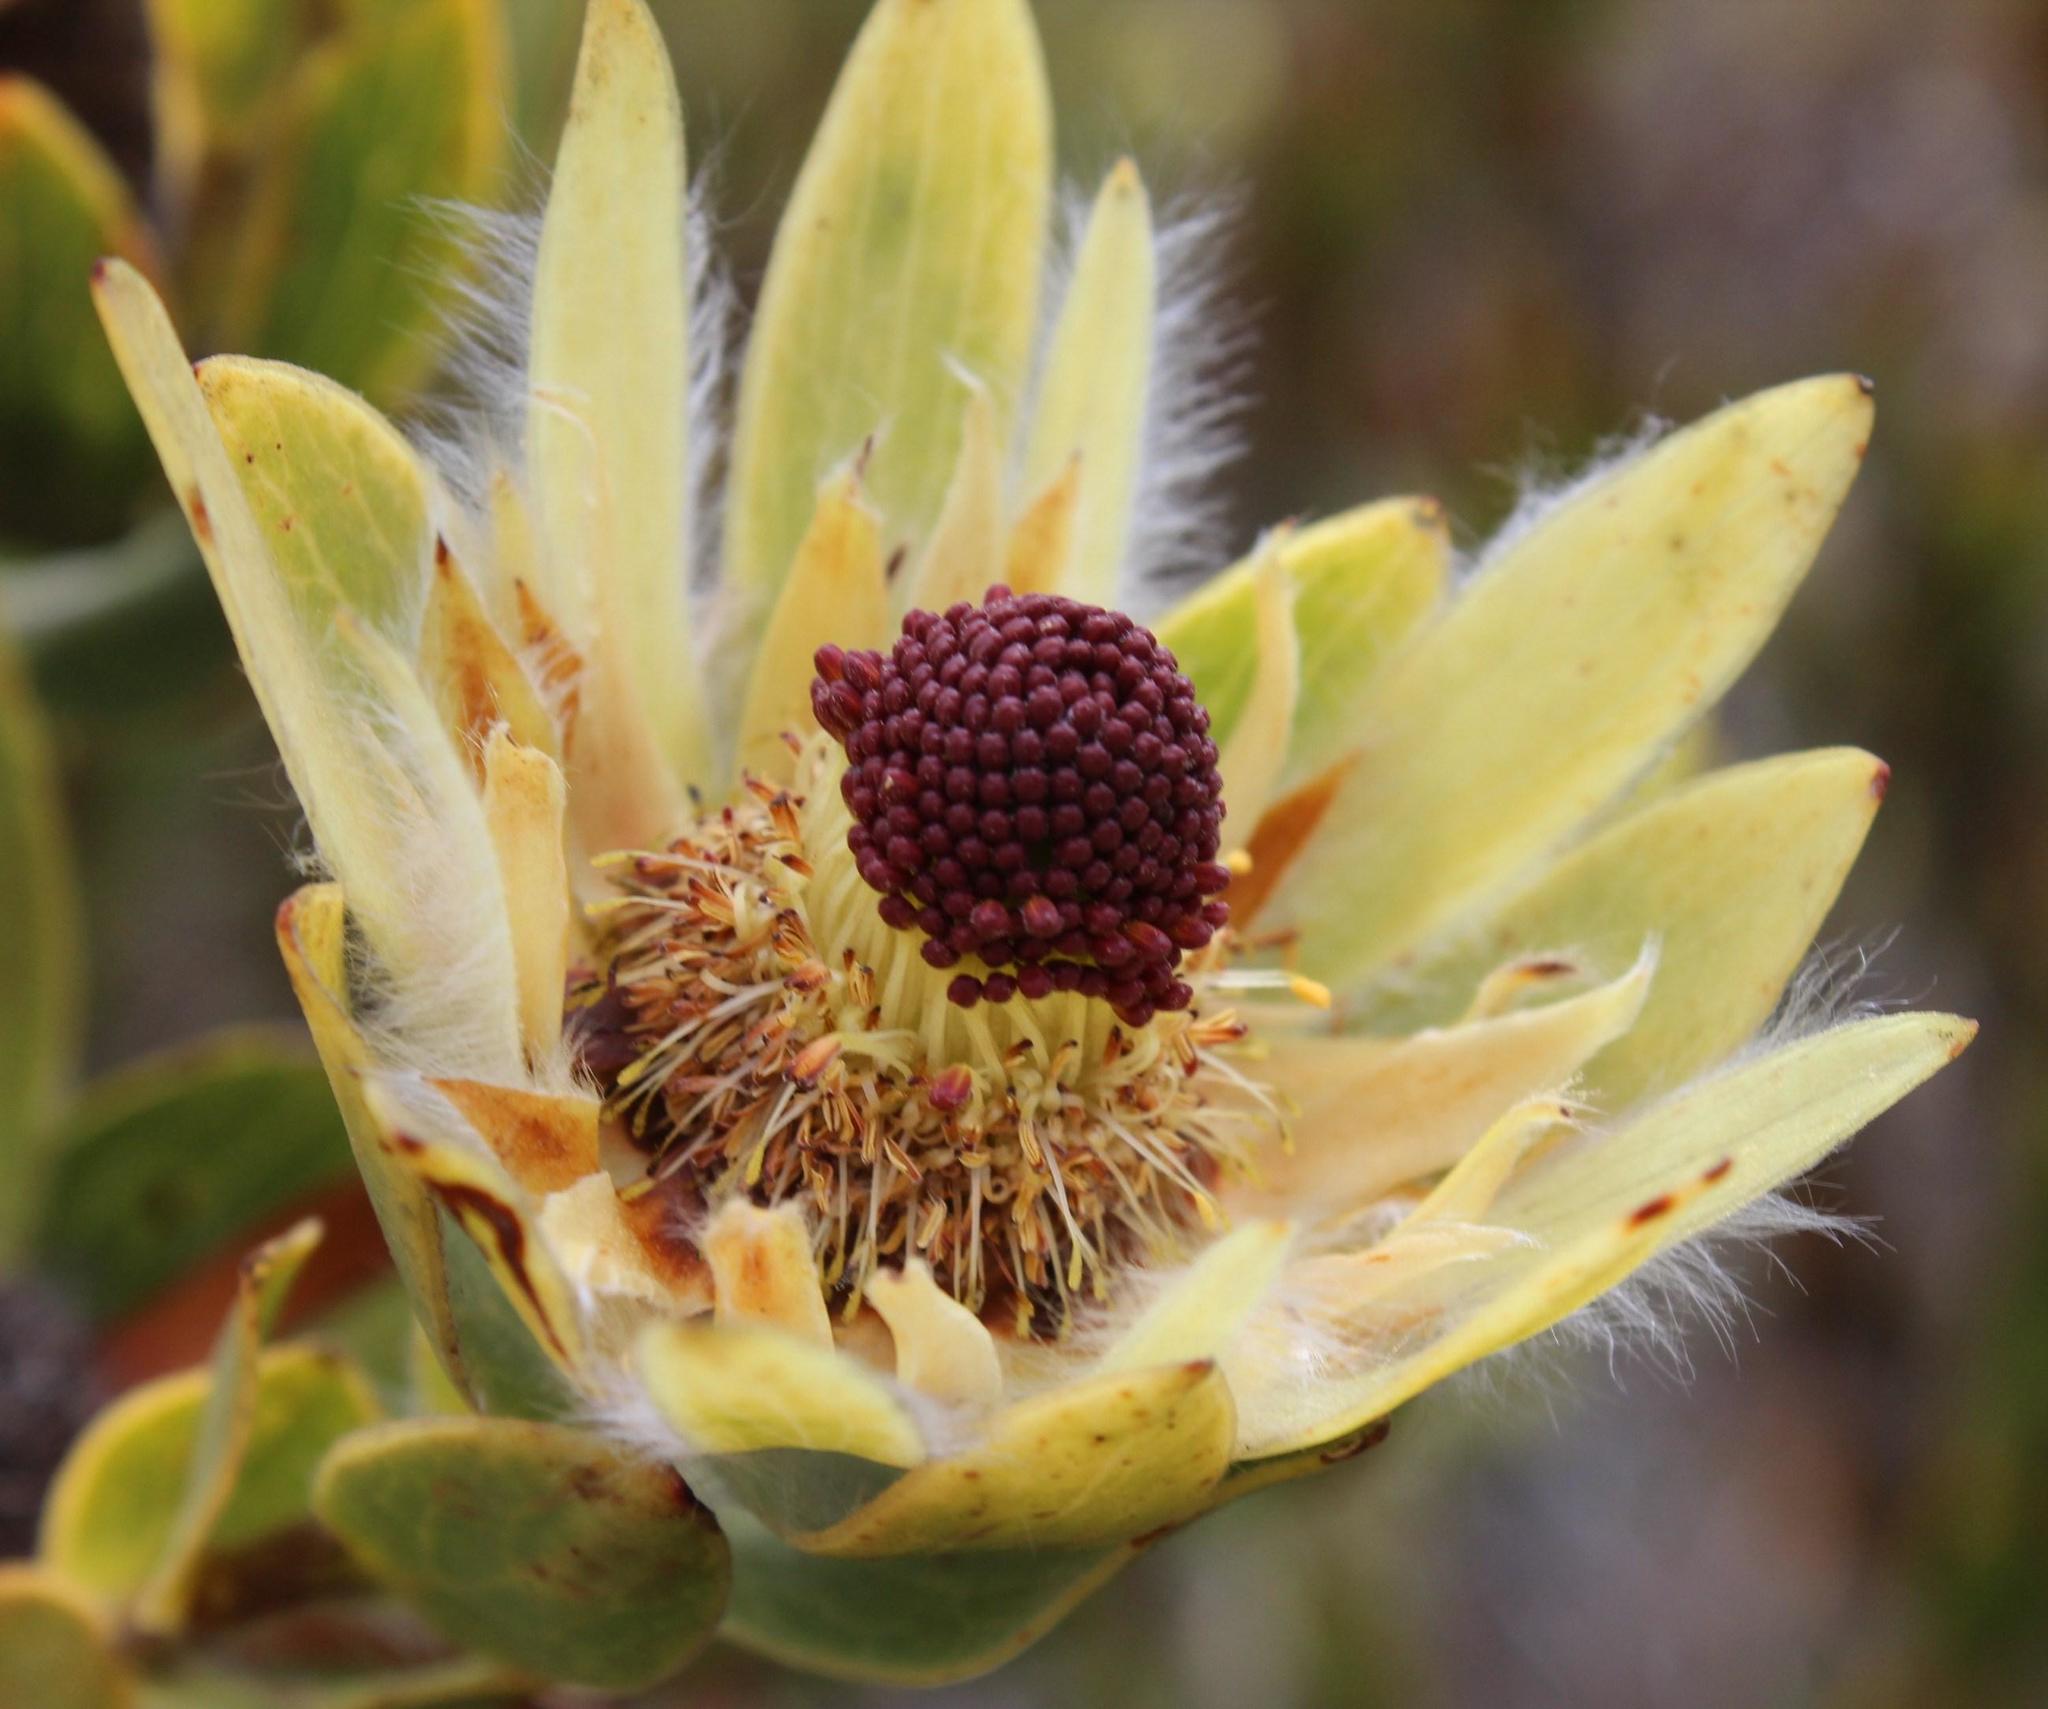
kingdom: Plantae
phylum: Tracheophyta
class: Magnoliopsida
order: Proteales
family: Proteaceae
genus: Leucadendron
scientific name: Leucadendron nervosum
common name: Silky-ruff conebush
